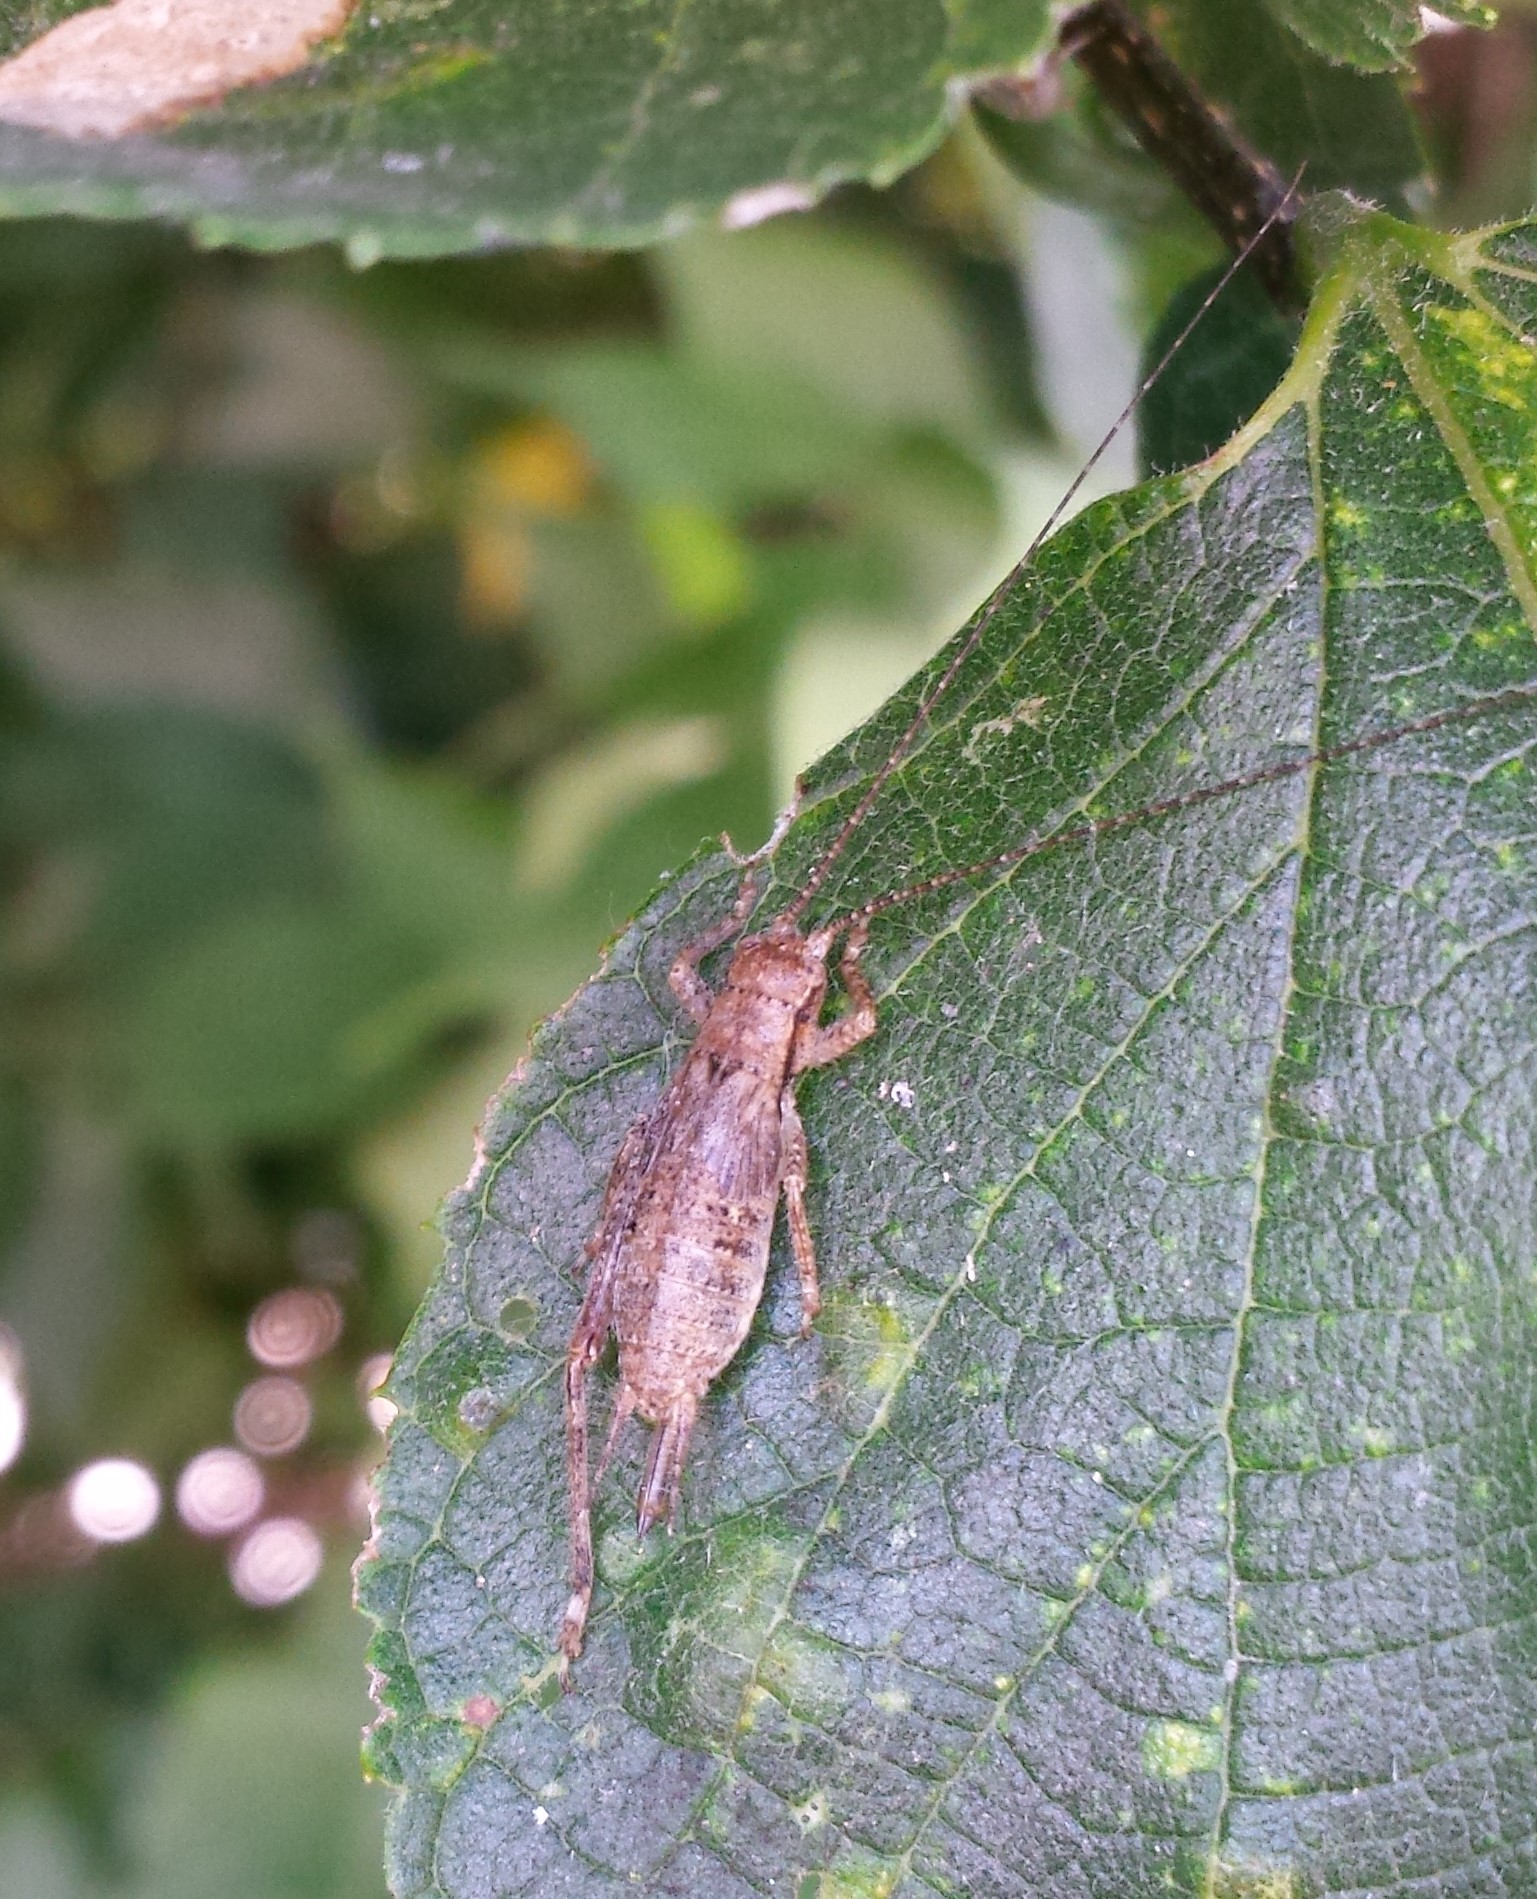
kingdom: Animalia
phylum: Arthropoda
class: Insecta
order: Orthoptera
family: Gryllidae
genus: Hapithus
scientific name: Hapithus saltator
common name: Jumping bush cricket
